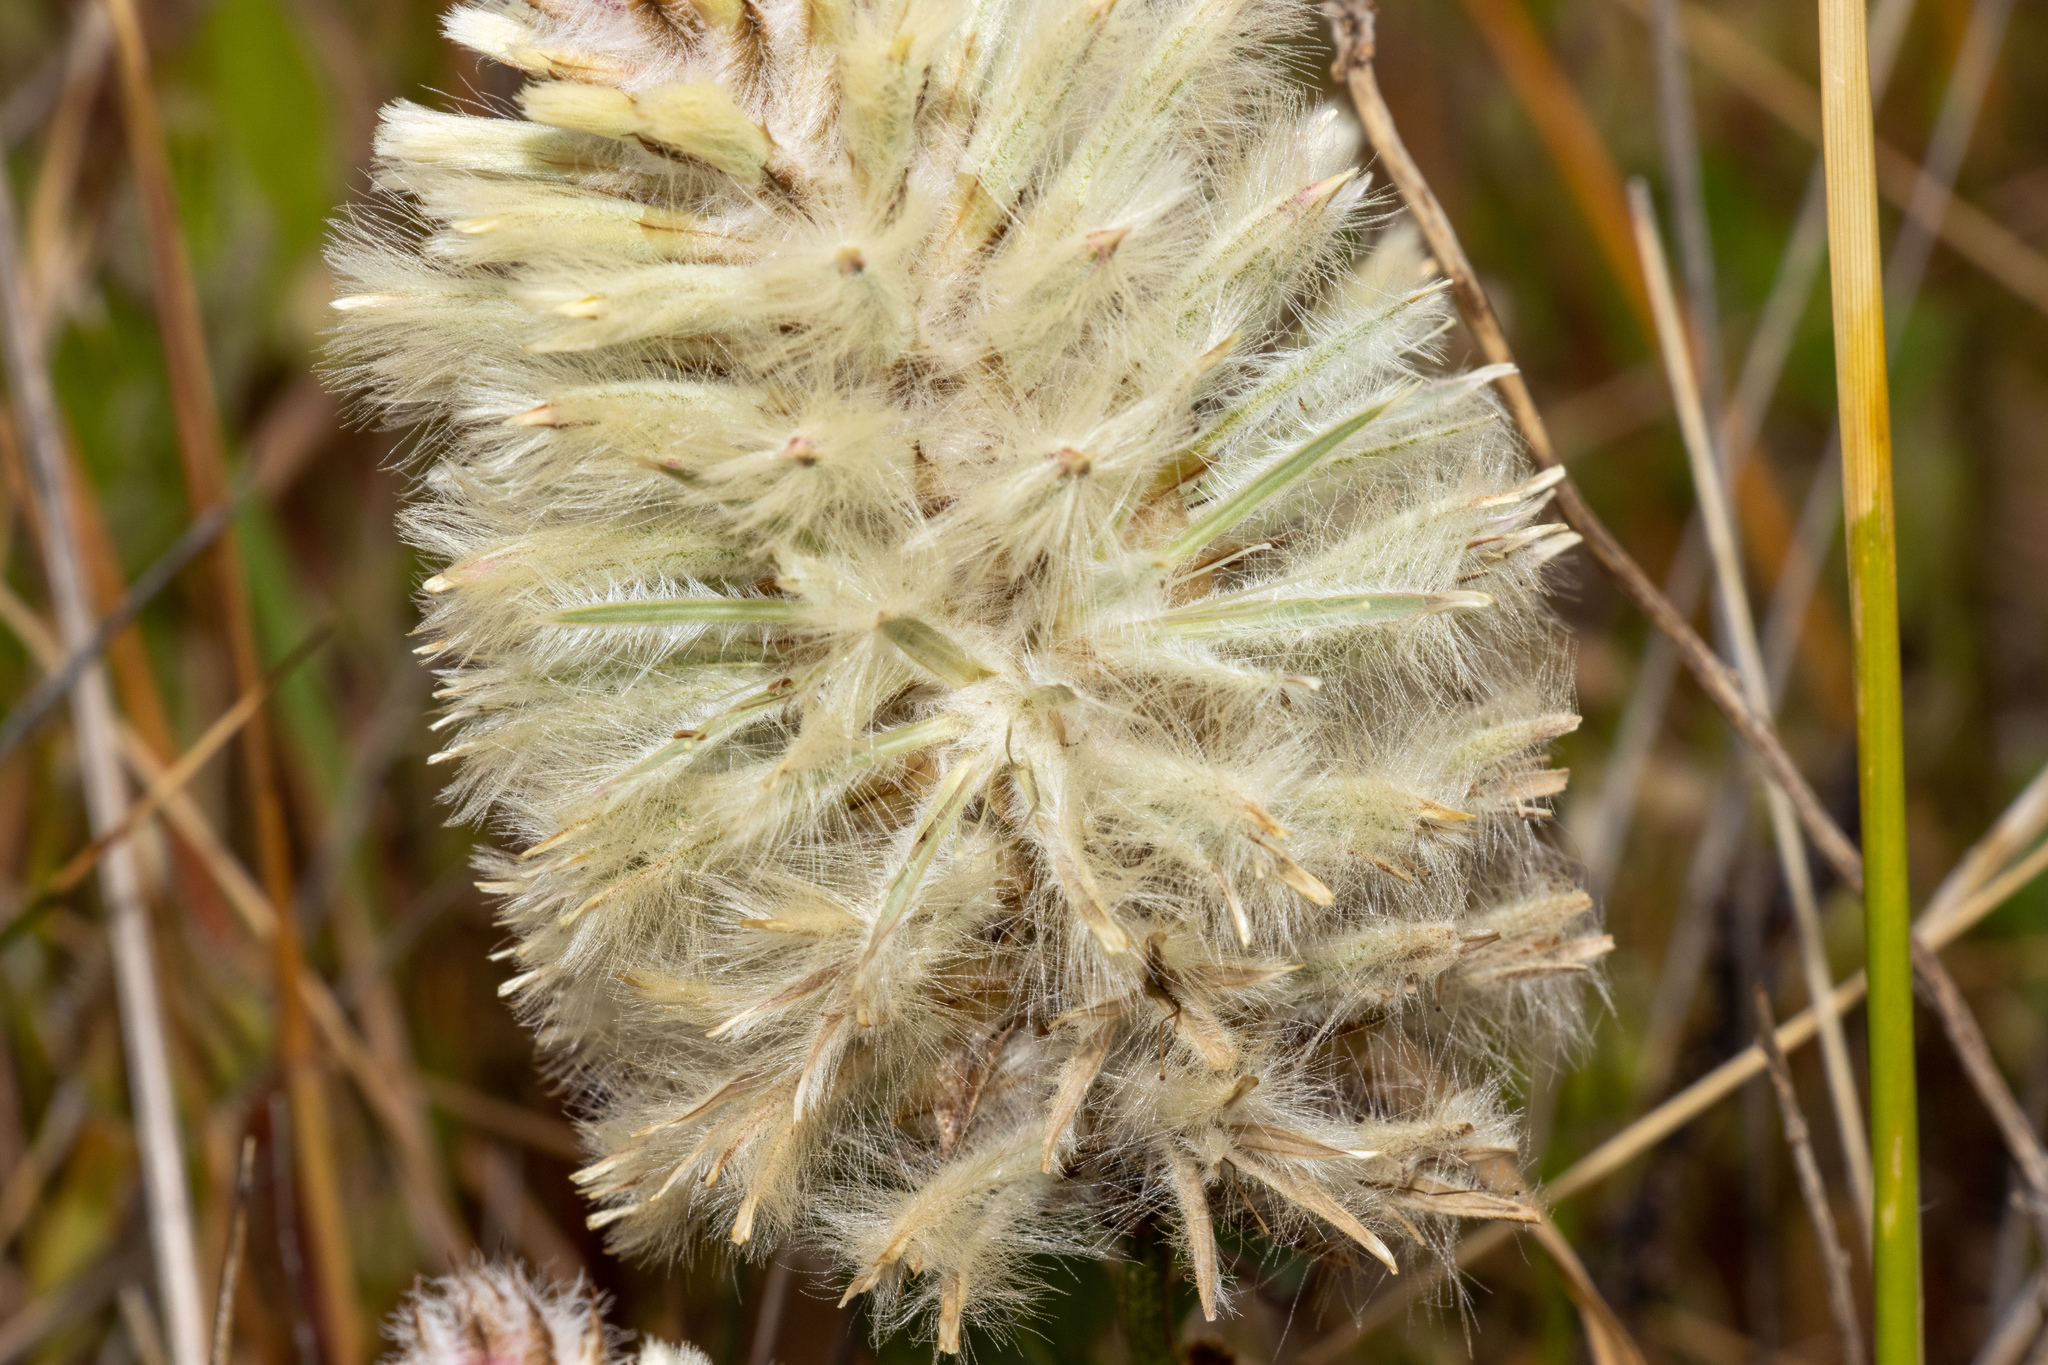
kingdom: Plantae
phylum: Tracheophyta
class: Magnoliopsida
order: Caryophyllales
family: Amaranthaceae
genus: Ptilotus
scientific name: Ptilotus angustifolius
